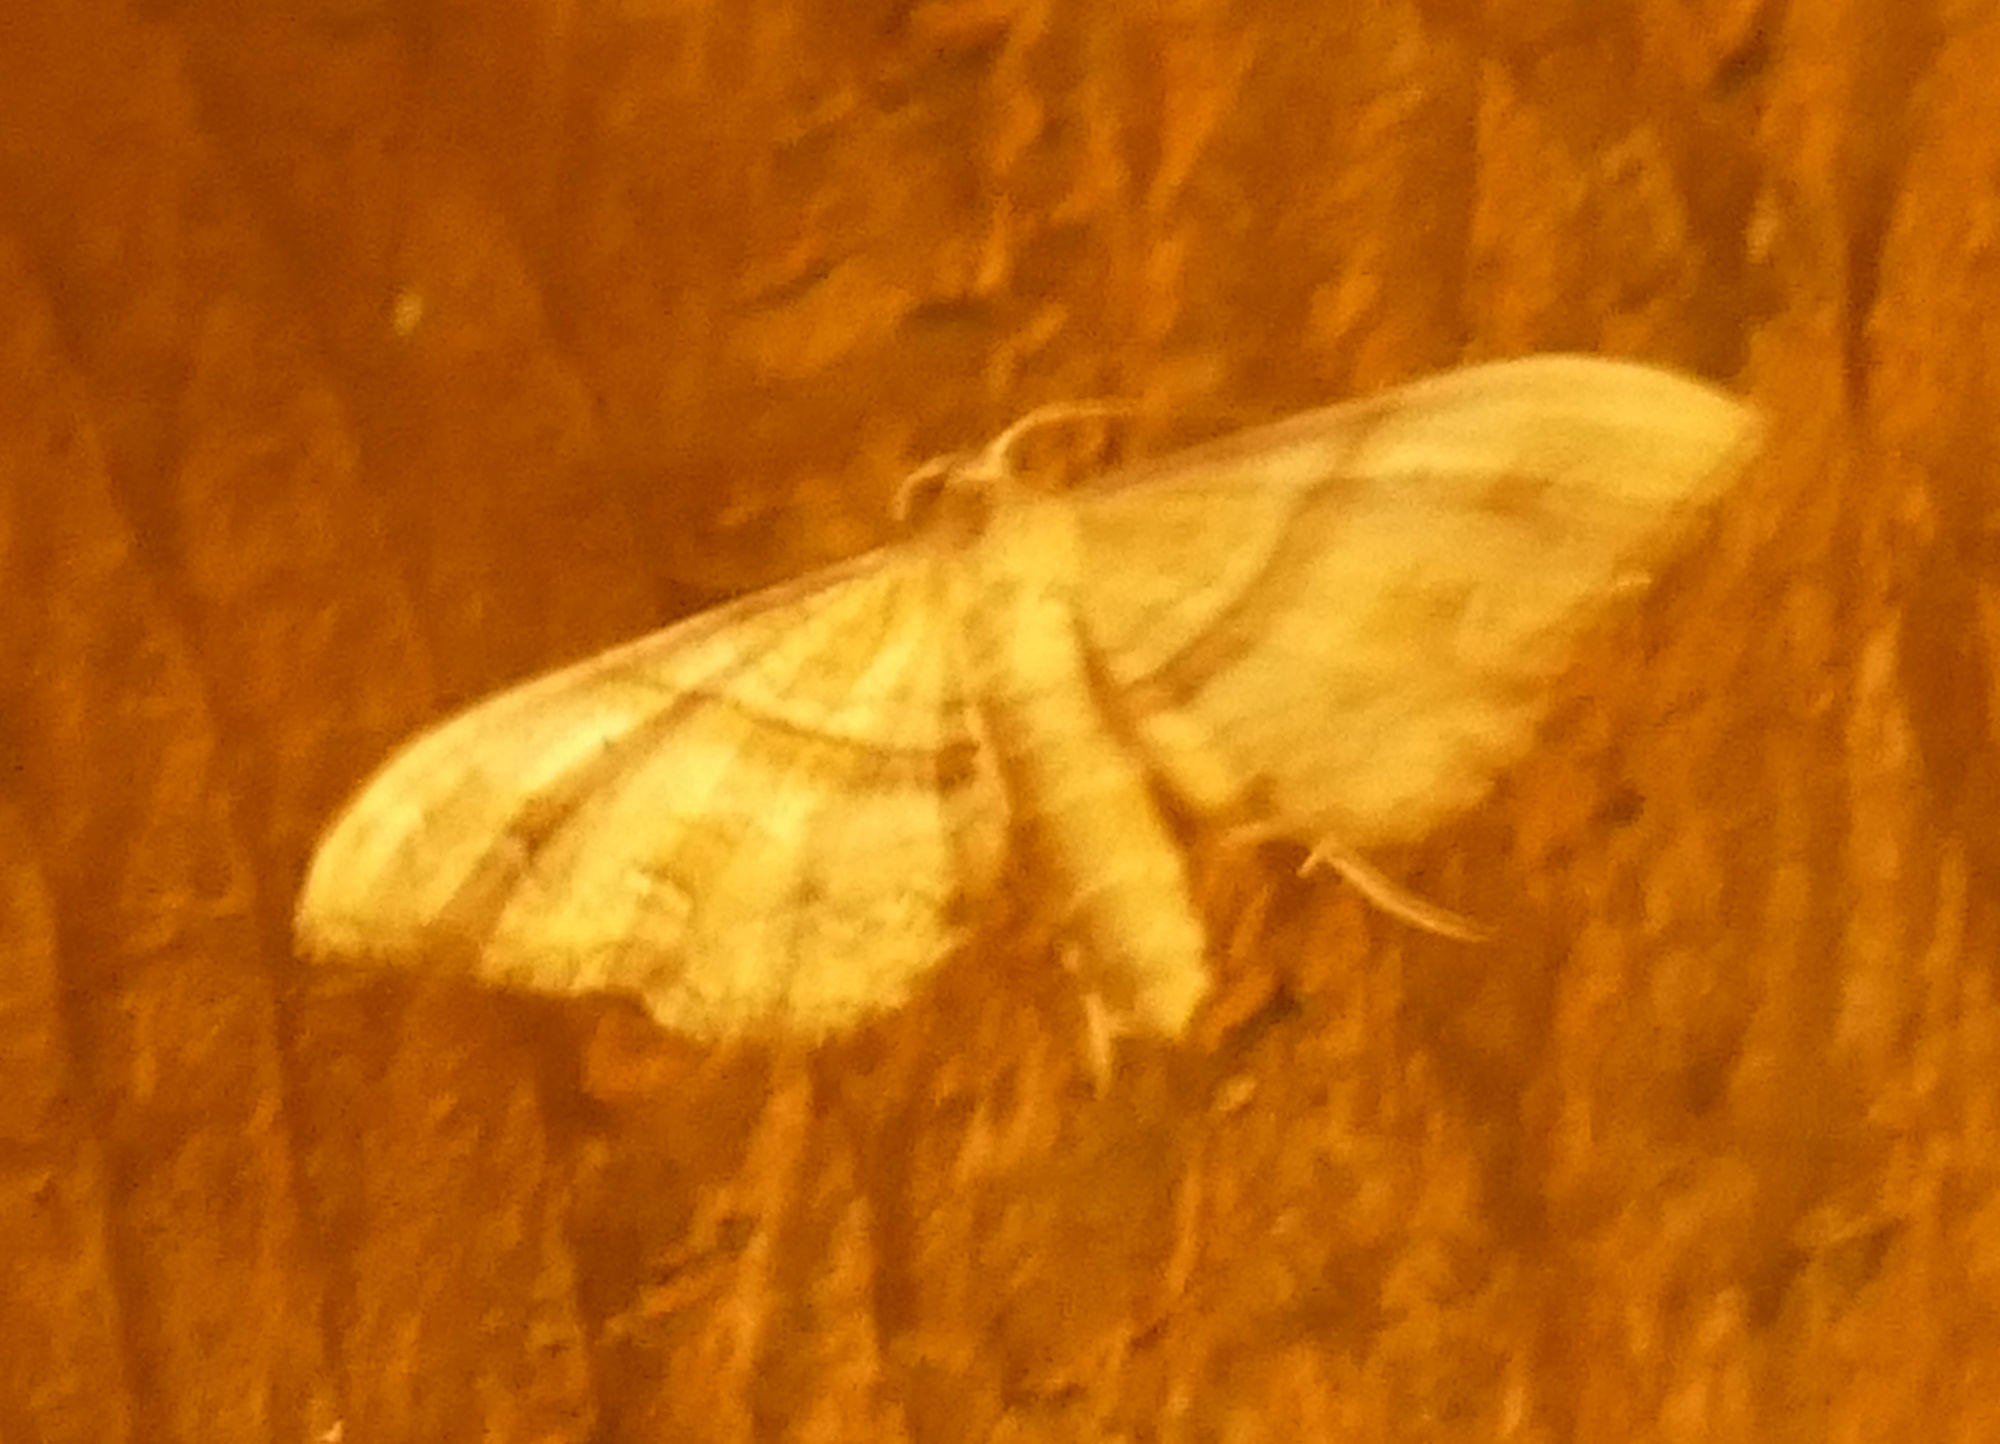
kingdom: Animalia
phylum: Arthropoda
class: Insecta
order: Lepidoptera
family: Geometridae
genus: Odontoptila
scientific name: Odontoptila obrimo
